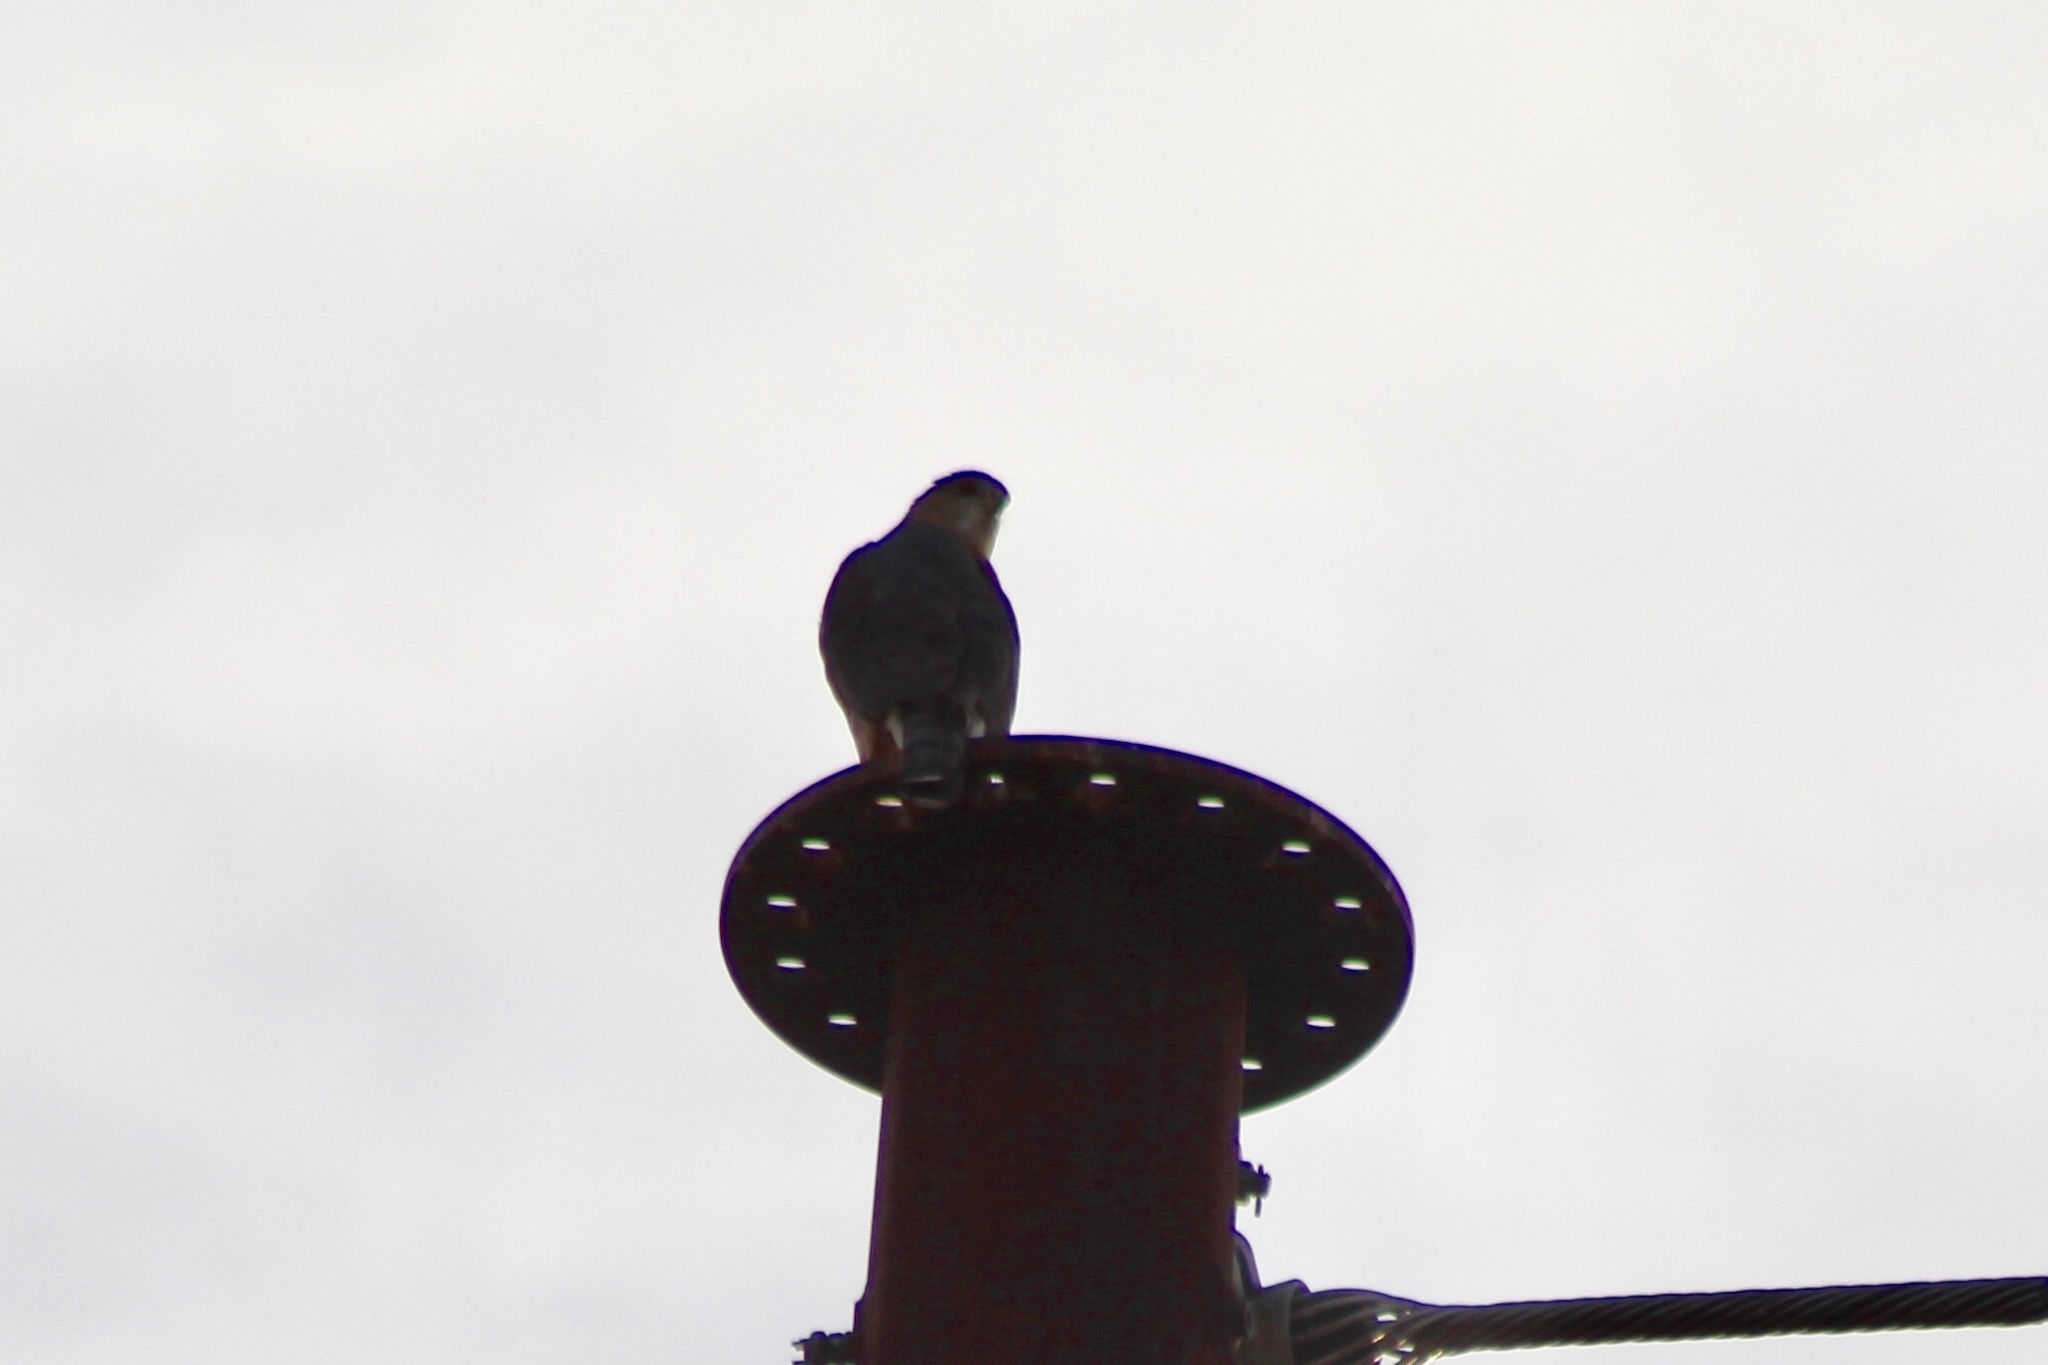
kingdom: Animalia
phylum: Chordata
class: Aves
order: Accipitriformes
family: Accipitridae
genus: Accipiter
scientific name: Accipiter cooperii
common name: Cooper's hawk
